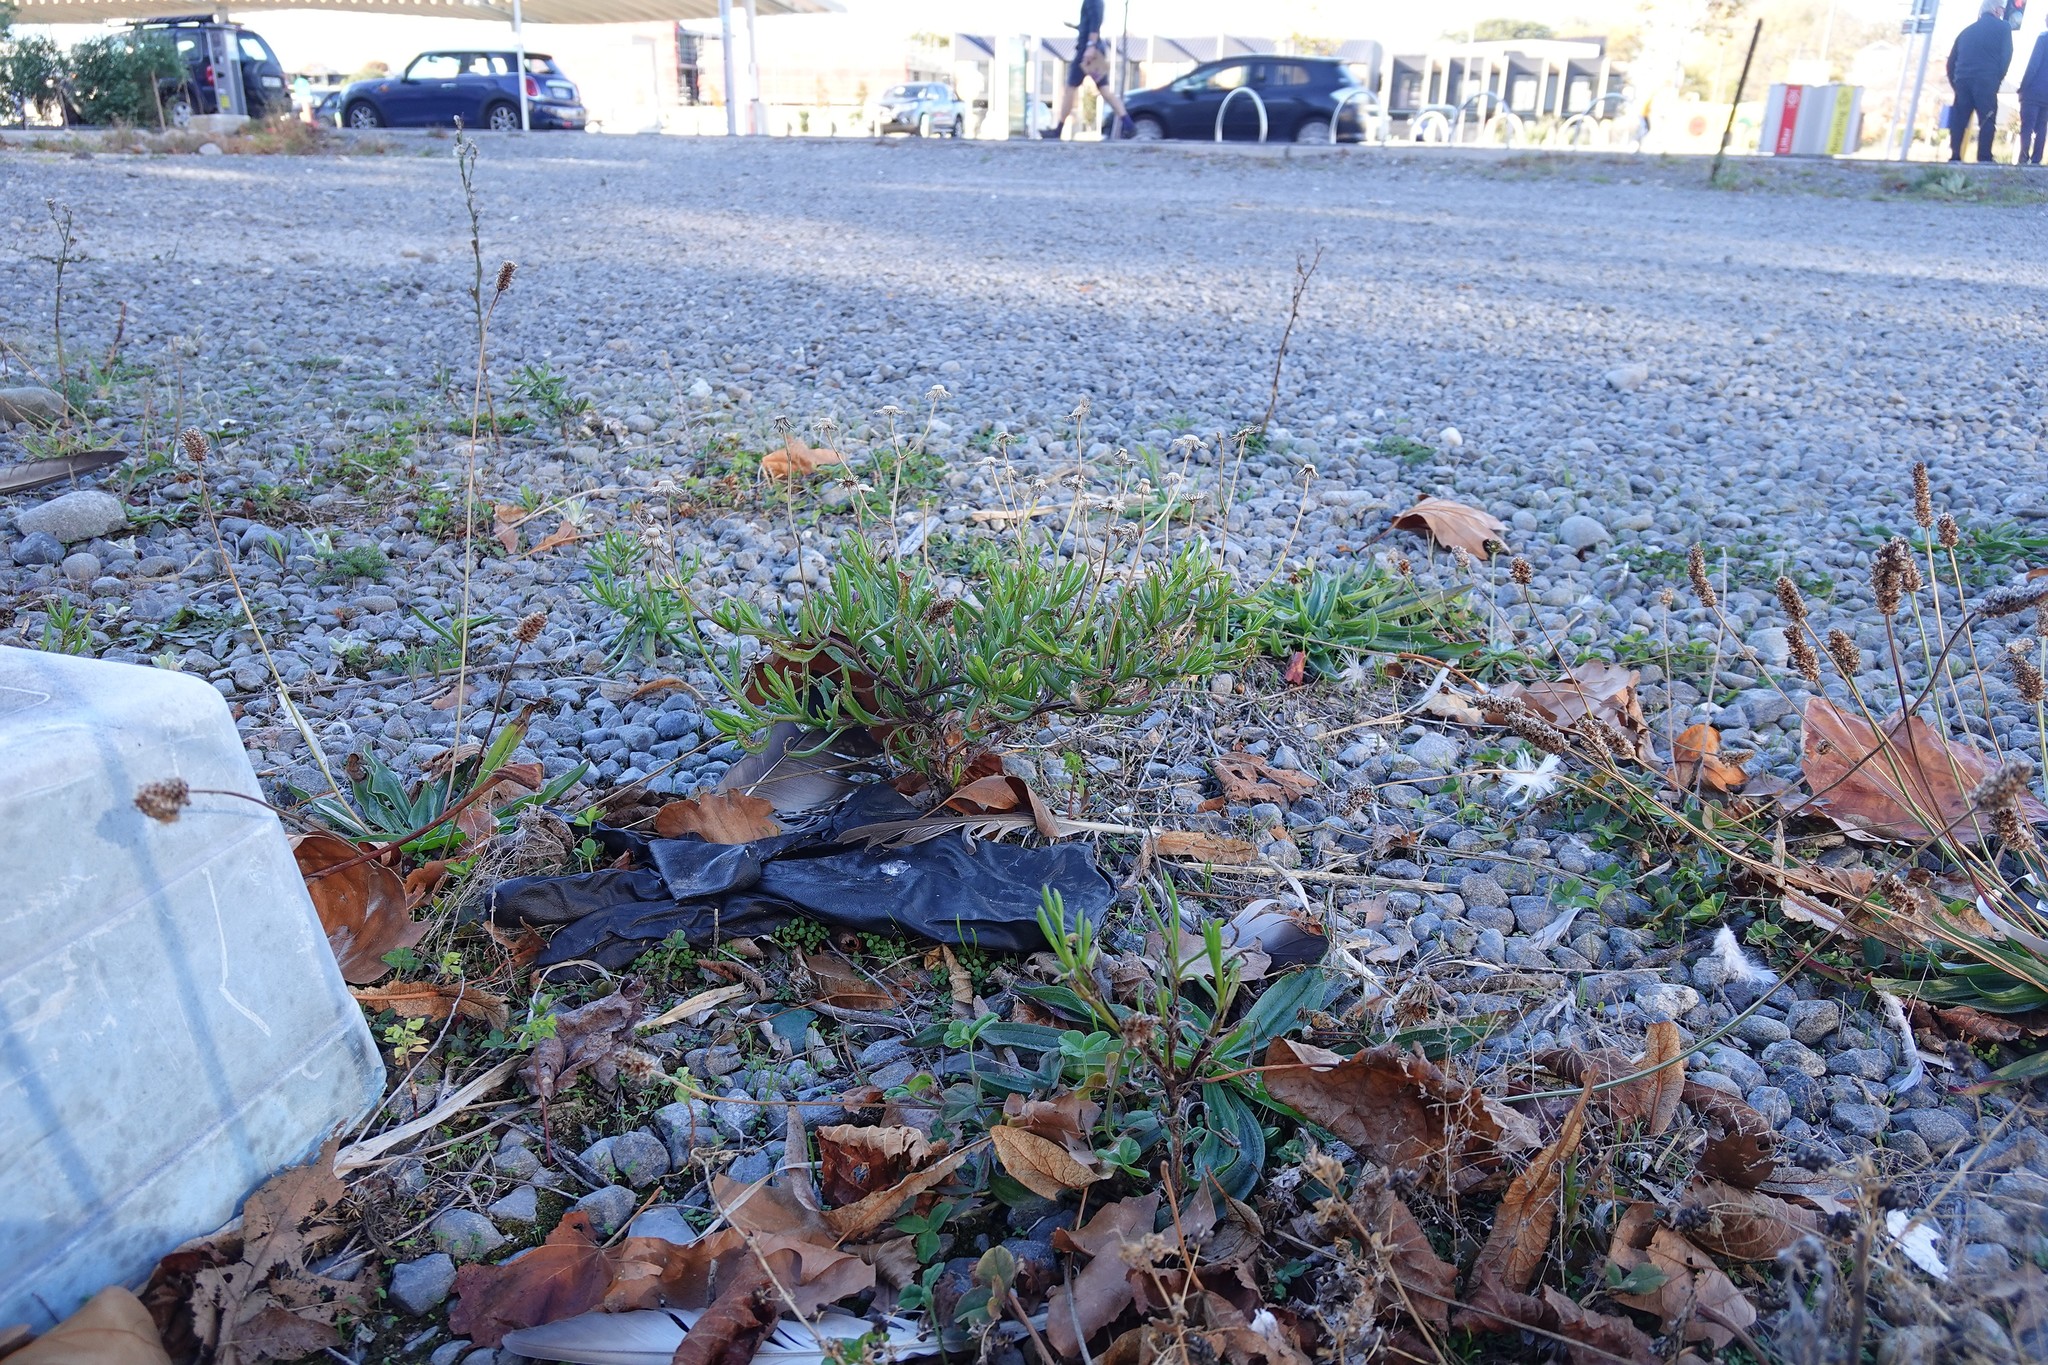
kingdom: Plantae
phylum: Tracheophyta
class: Magnoliopsida
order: Asterales
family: Asteraceae
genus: Senecio
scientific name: Senecio skirrhodon
